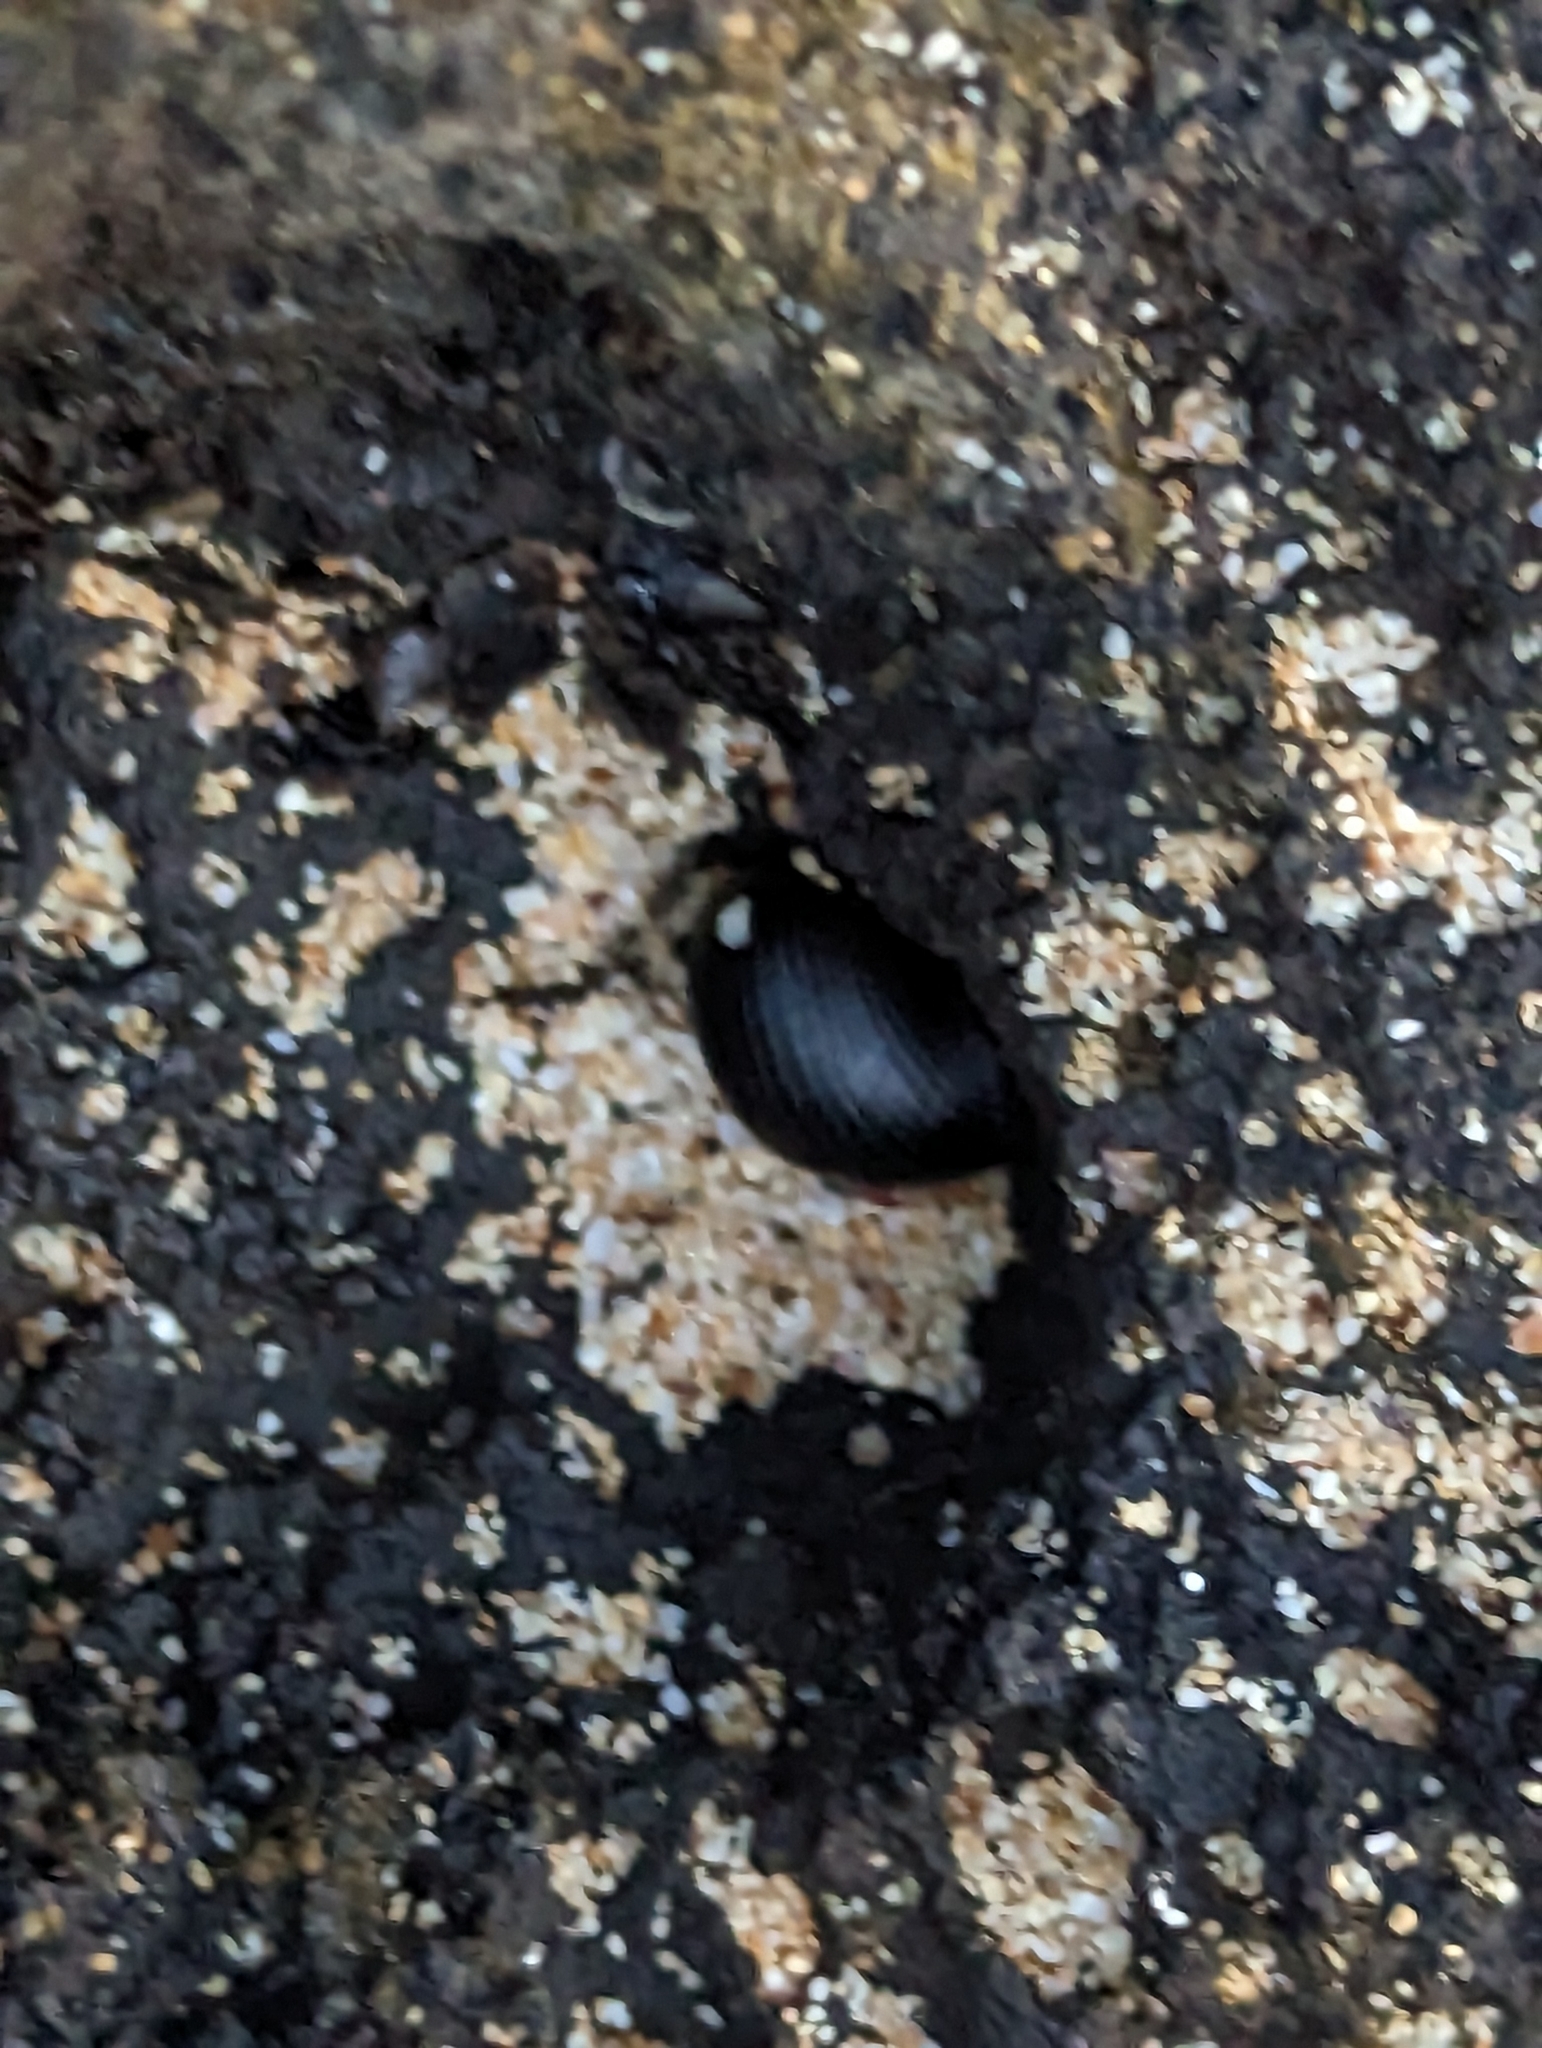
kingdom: Animalia
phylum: Mollusca
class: Gastropoda
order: Cycloneritida
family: Neritidae
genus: Nerita
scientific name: Nerita picea
